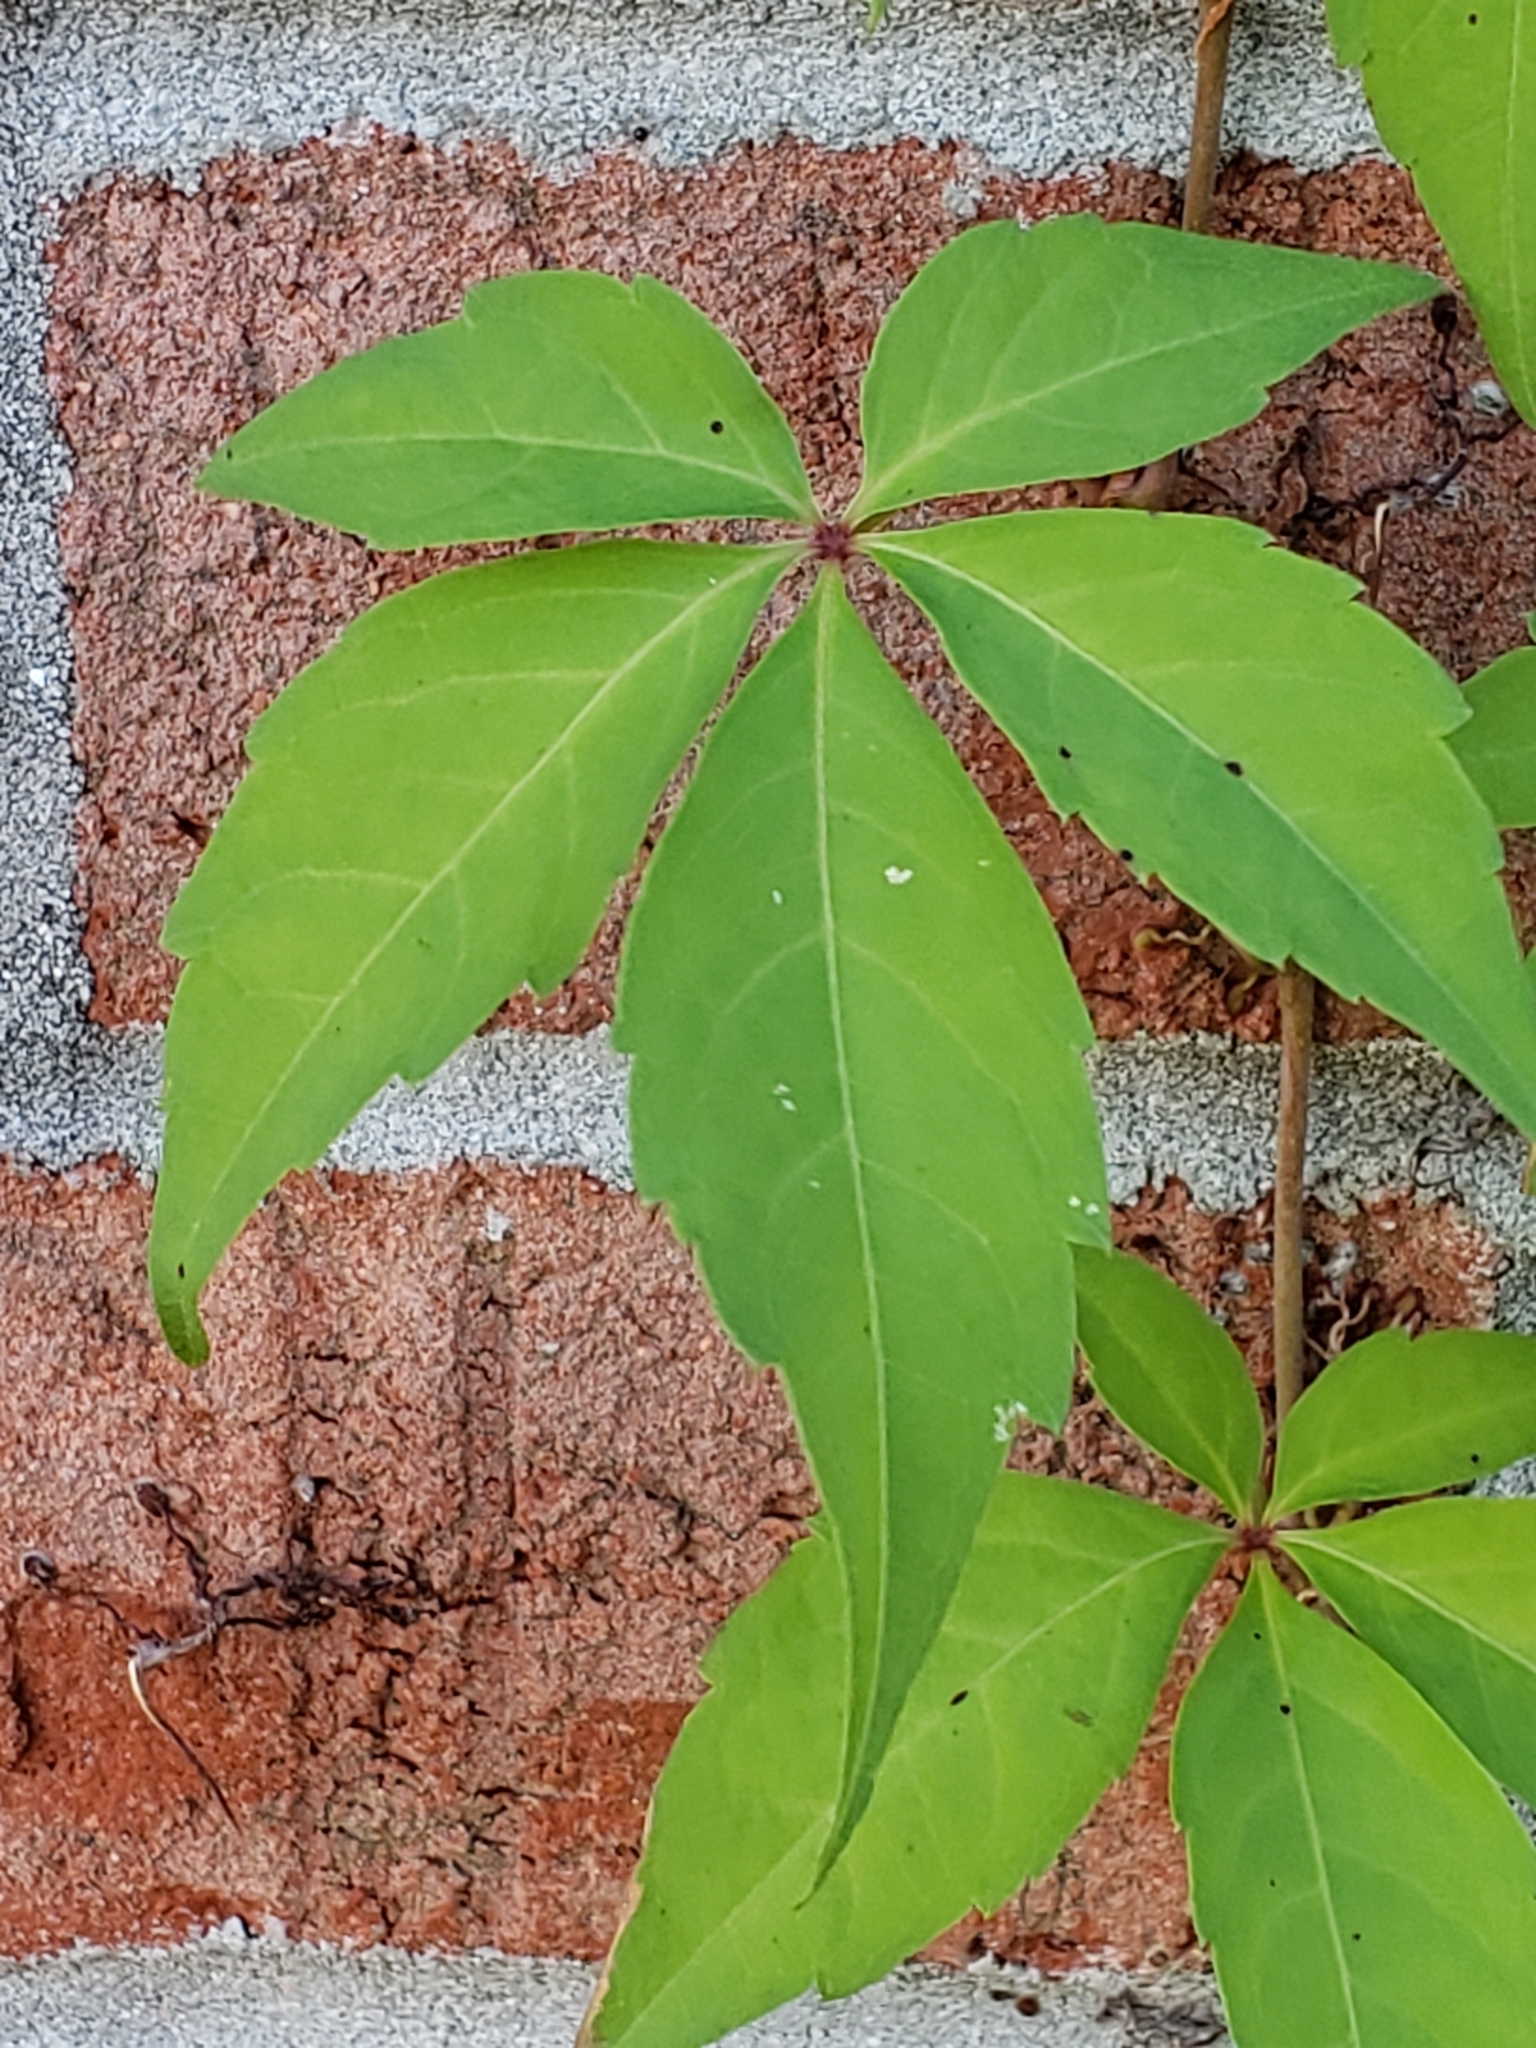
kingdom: Plantae
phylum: Tracheophyta
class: Magnoliopsida
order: Vitales
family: Vitaceae
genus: Parthenocissus
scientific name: Parthenocissus quinquefolia
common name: Virginia-creeper
